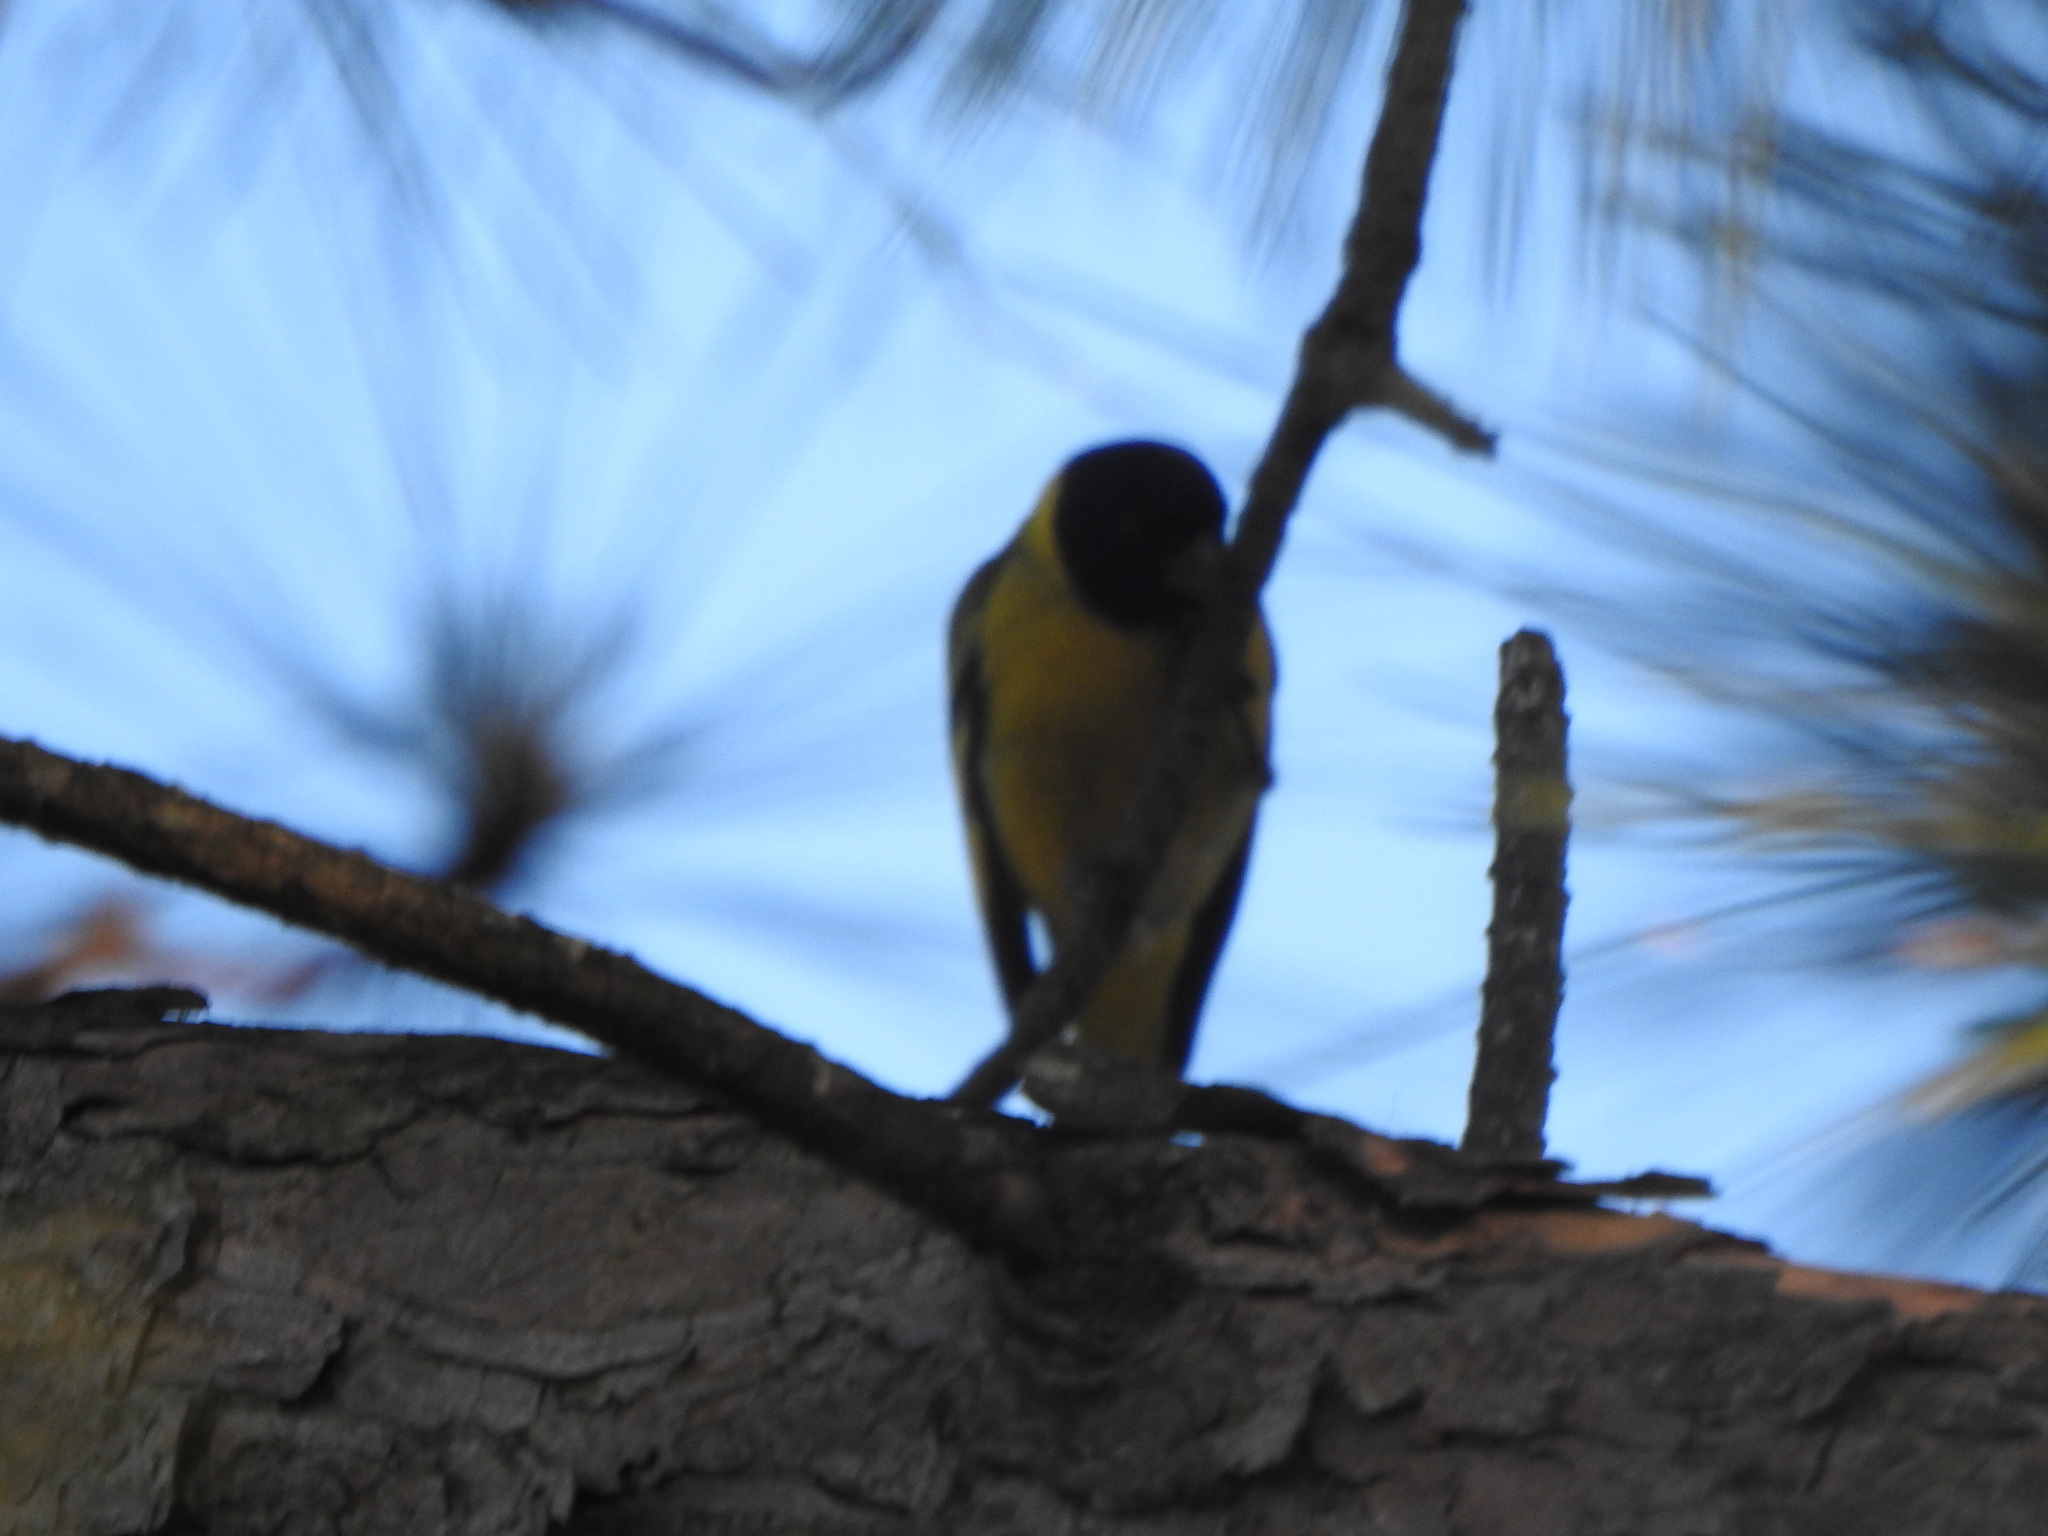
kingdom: Animalia
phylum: Chordata
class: Aves
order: Passeriformes
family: Fringillidae
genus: Spinus
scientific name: Spinus magellanicus
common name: Hooded siskin
